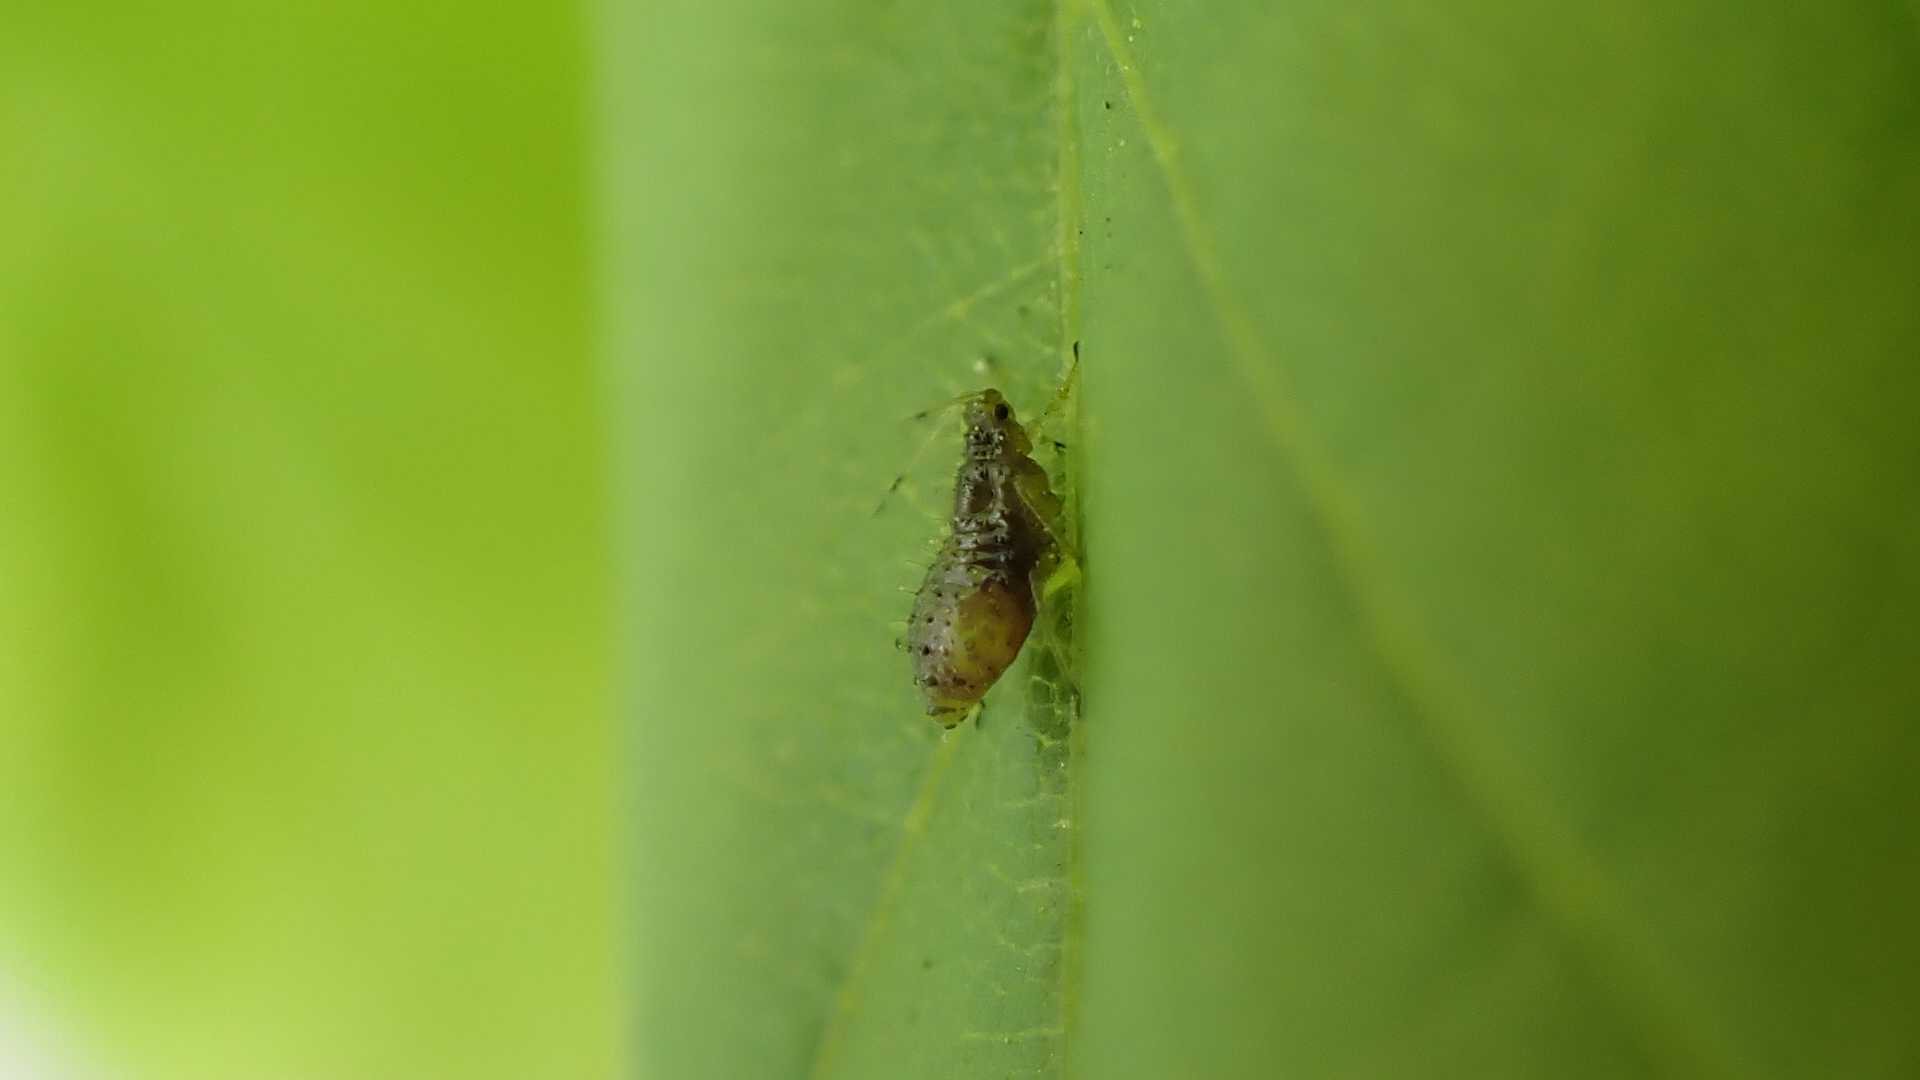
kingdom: Animalia
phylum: Arthropoda
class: Insecta
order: Hemiptera
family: Aphididae
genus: Periphyllus
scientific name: Periphyllus testudinaceus
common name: Common maple aphid
